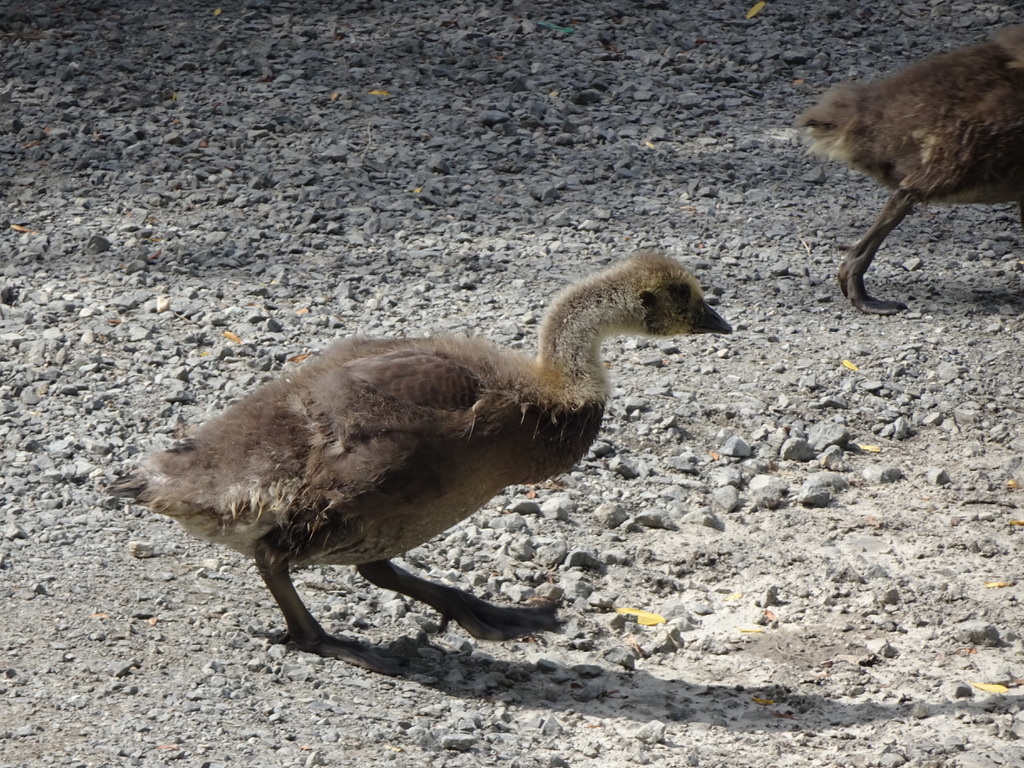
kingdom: Animalia
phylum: Chordata
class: Aves
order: Anseriformes
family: Anatidae
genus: Branta
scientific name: Branta canadensis
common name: Canada goose
